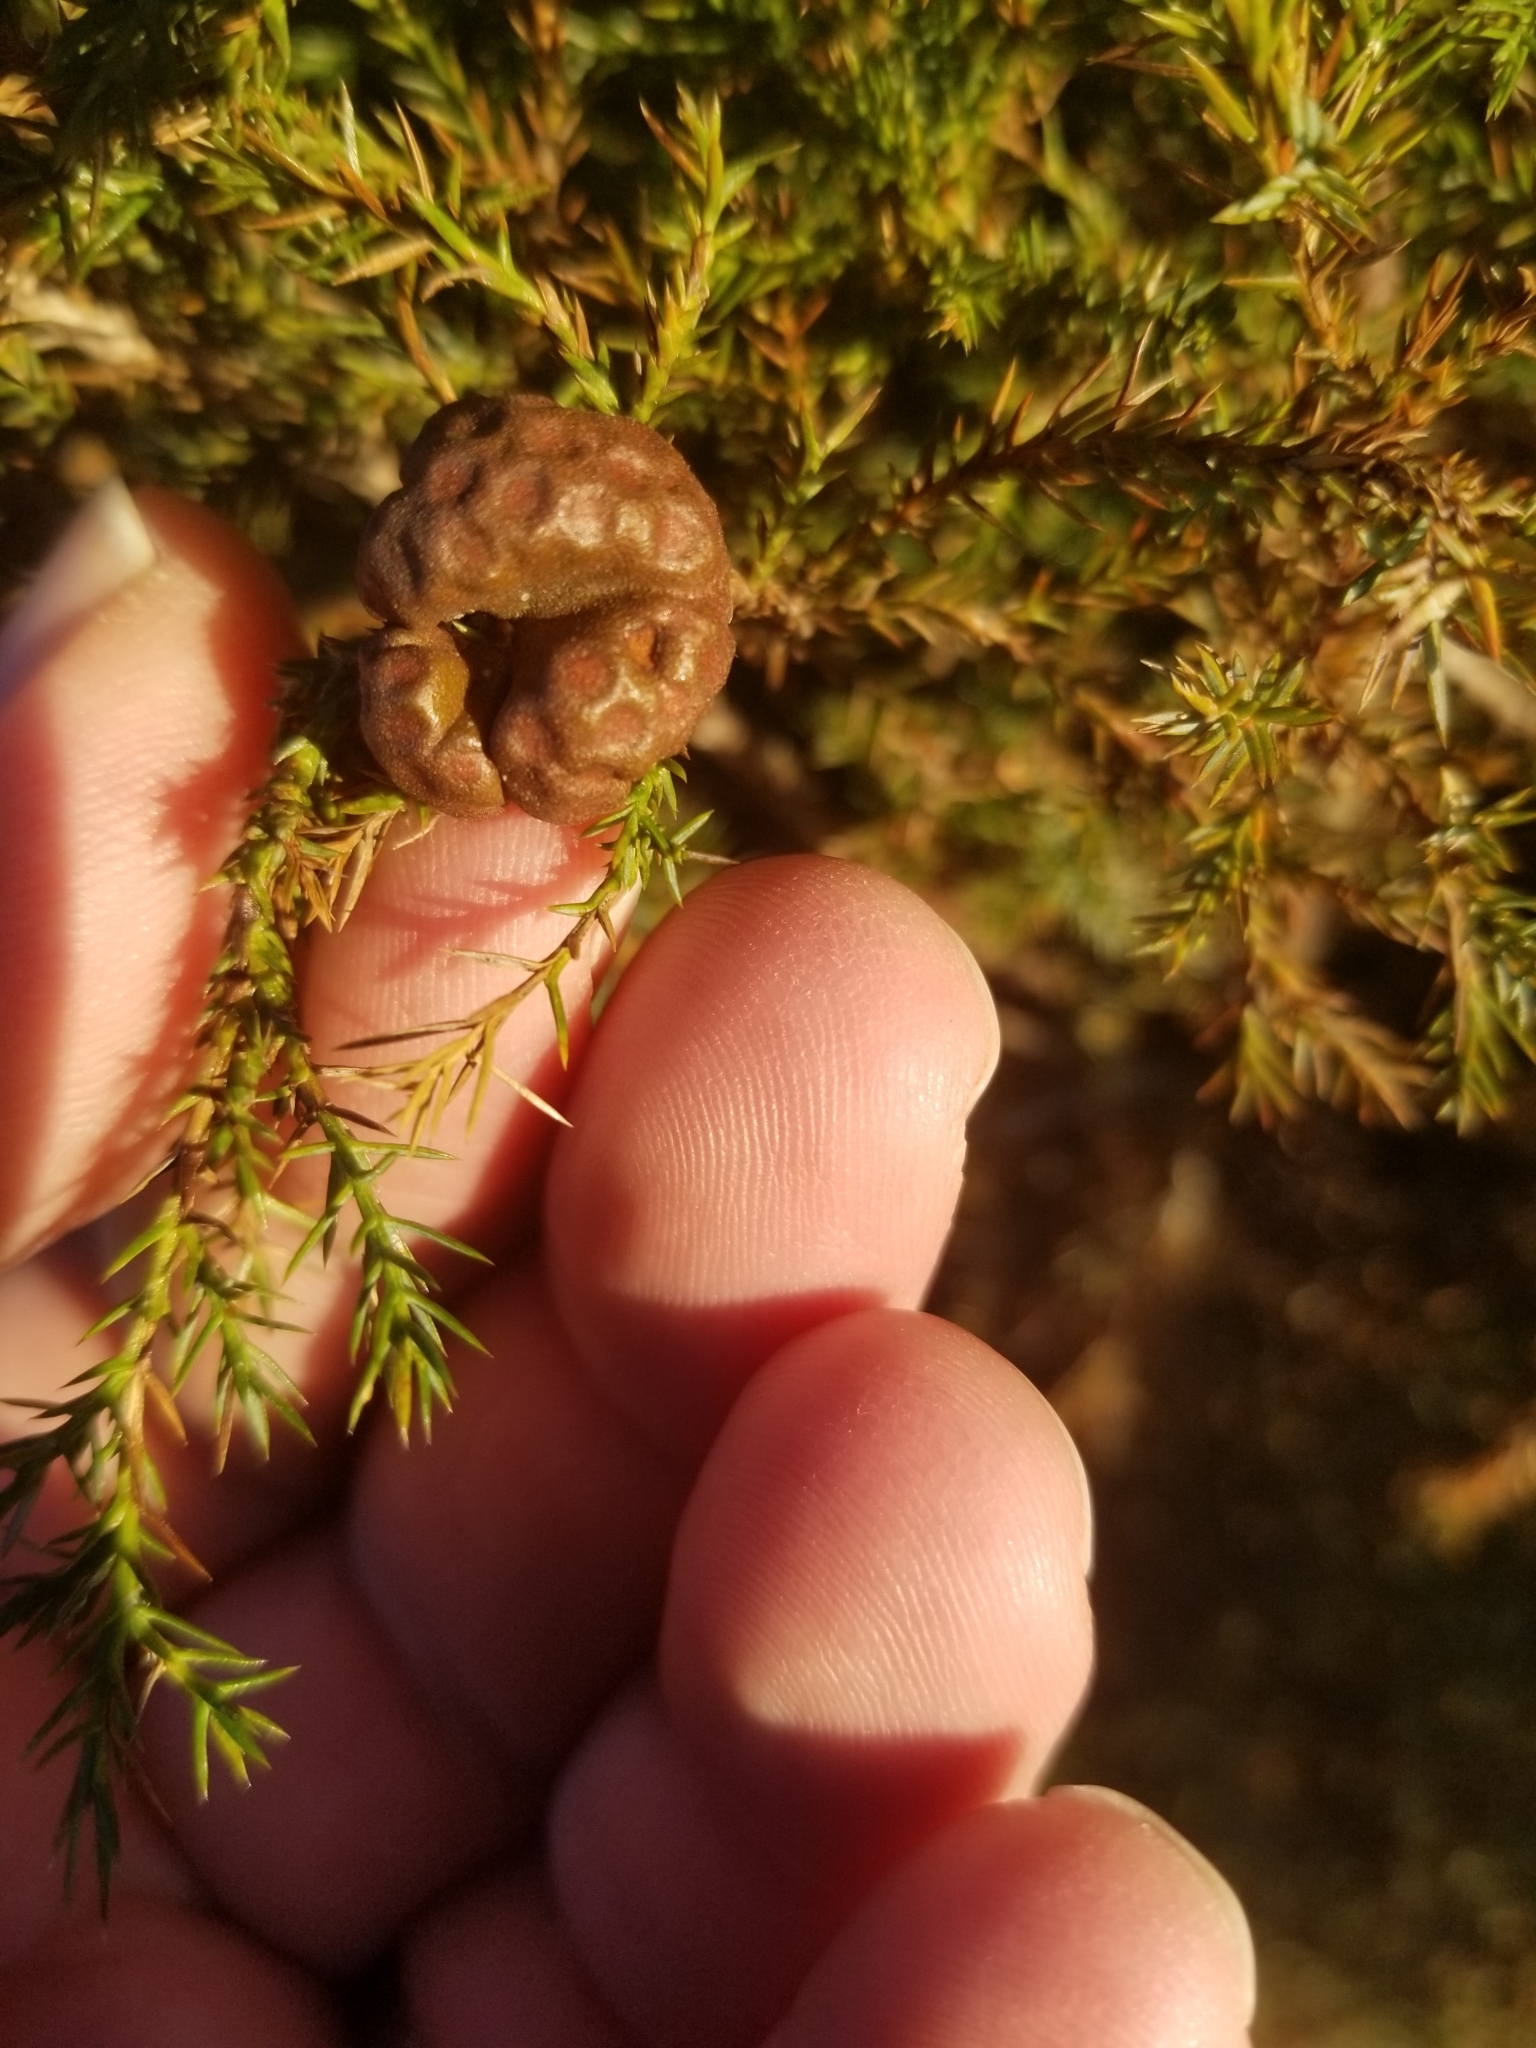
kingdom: Fungi
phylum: Basidiomycota
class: Pucciniomycetes
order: Pucciniales
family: Gymnosporangiaceae
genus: Gymnosporangium
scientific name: Gymnosporangium juniperi-virginianae
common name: Juniper-apple rust
